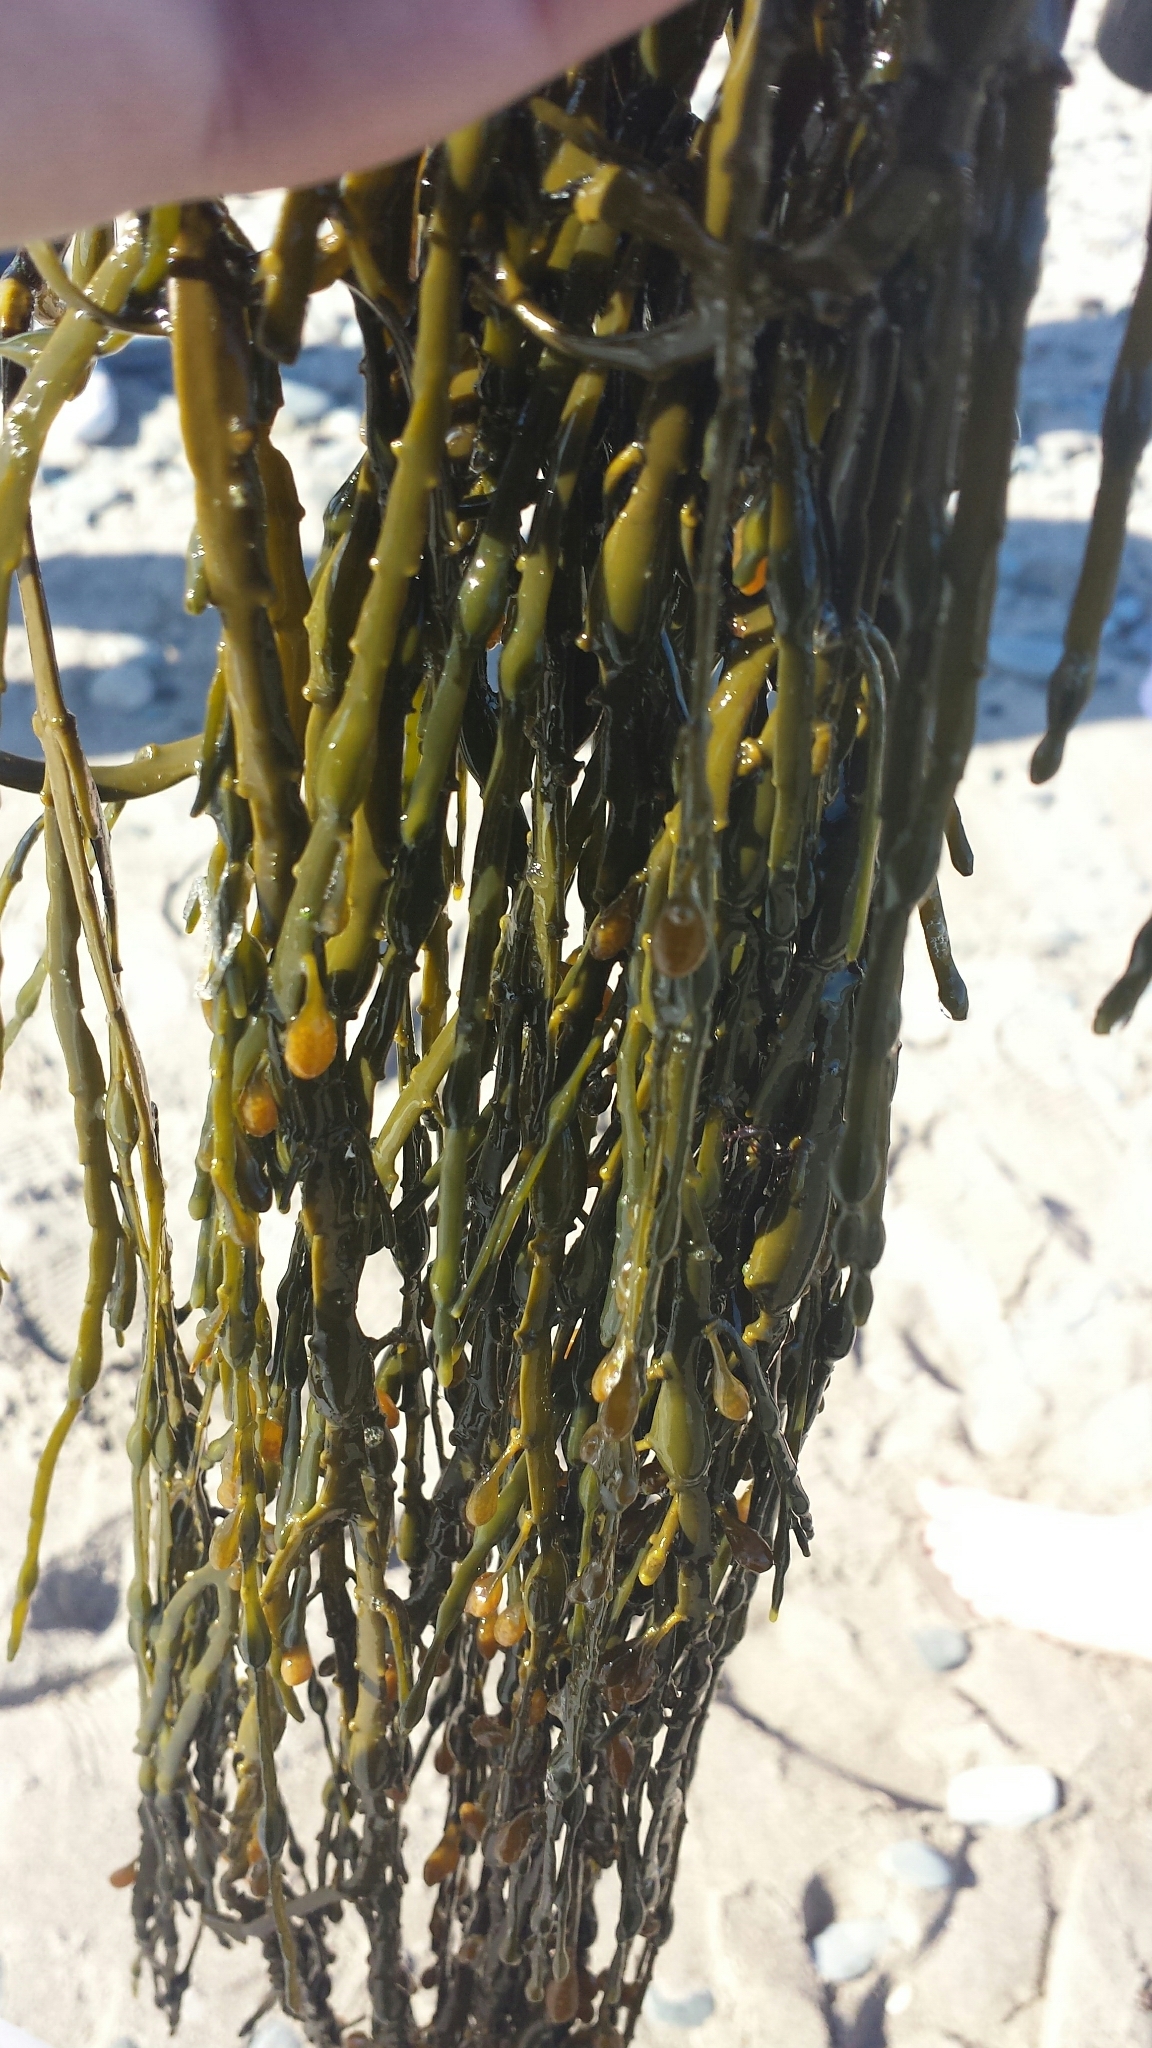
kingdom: Chromista
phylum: Ochrophyta
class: Phaeophyceae
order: Fucales
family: Fucaceae
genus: Ascophyllum
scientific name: Ascophyllum nodosum
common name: Knotted wrack
